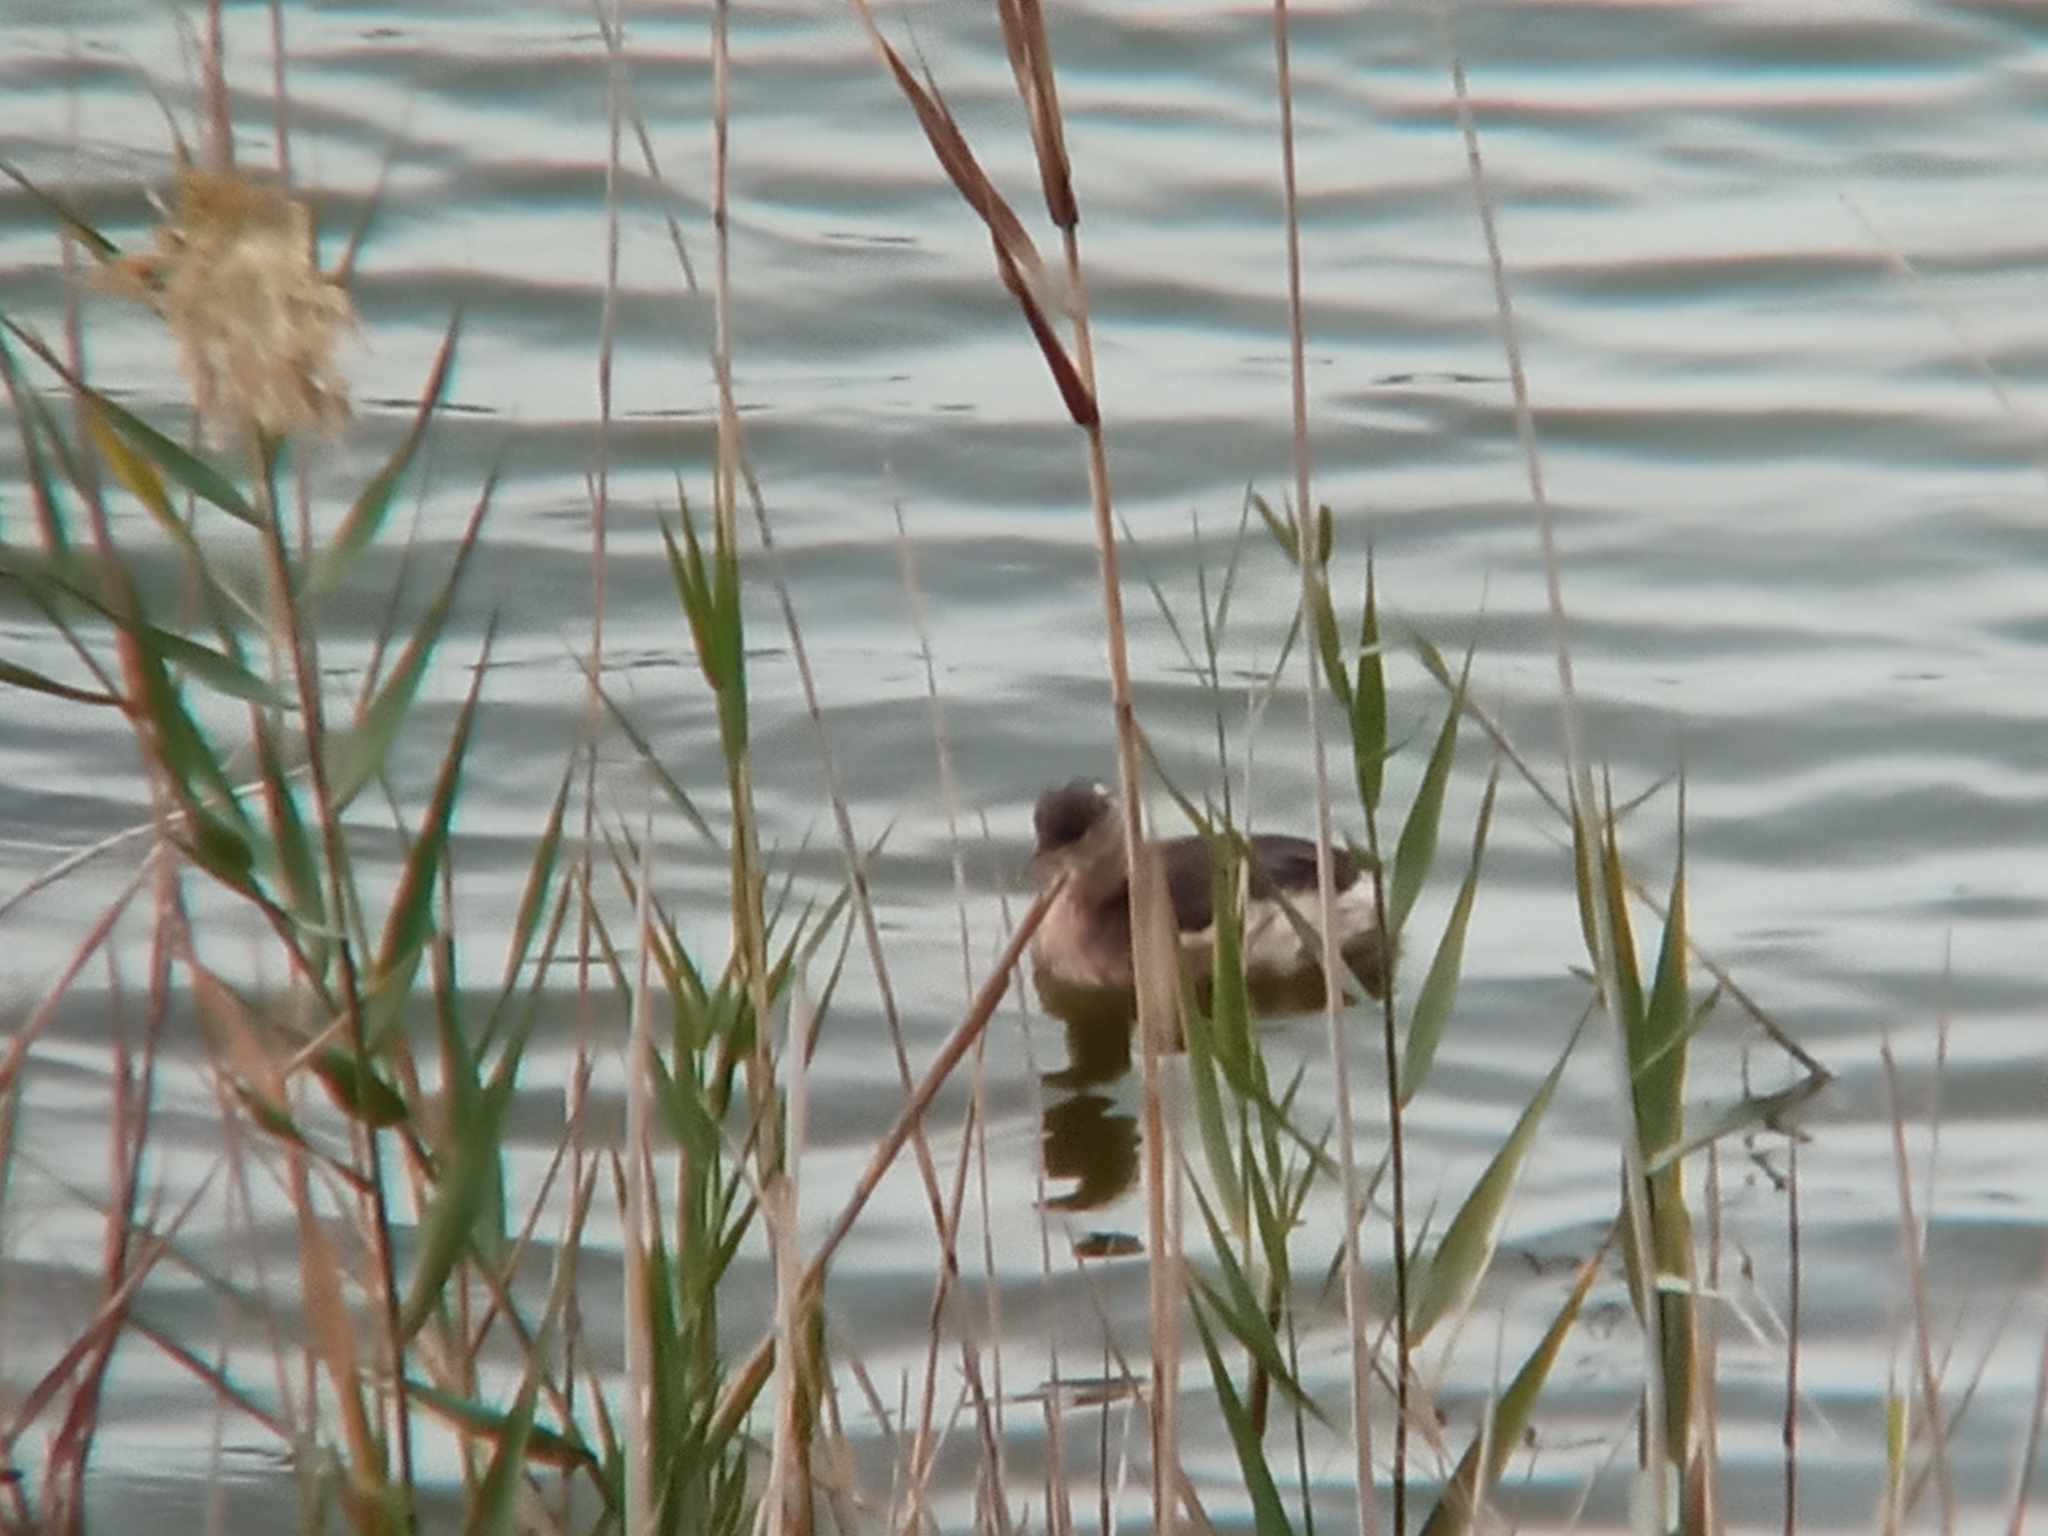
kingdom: Animalia
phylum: Chordata
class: Aves
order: Podicipediformes
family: Podicipedidae
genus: Tachybaptus
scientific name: Tachybaptus ruficollis
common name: Little grebe
